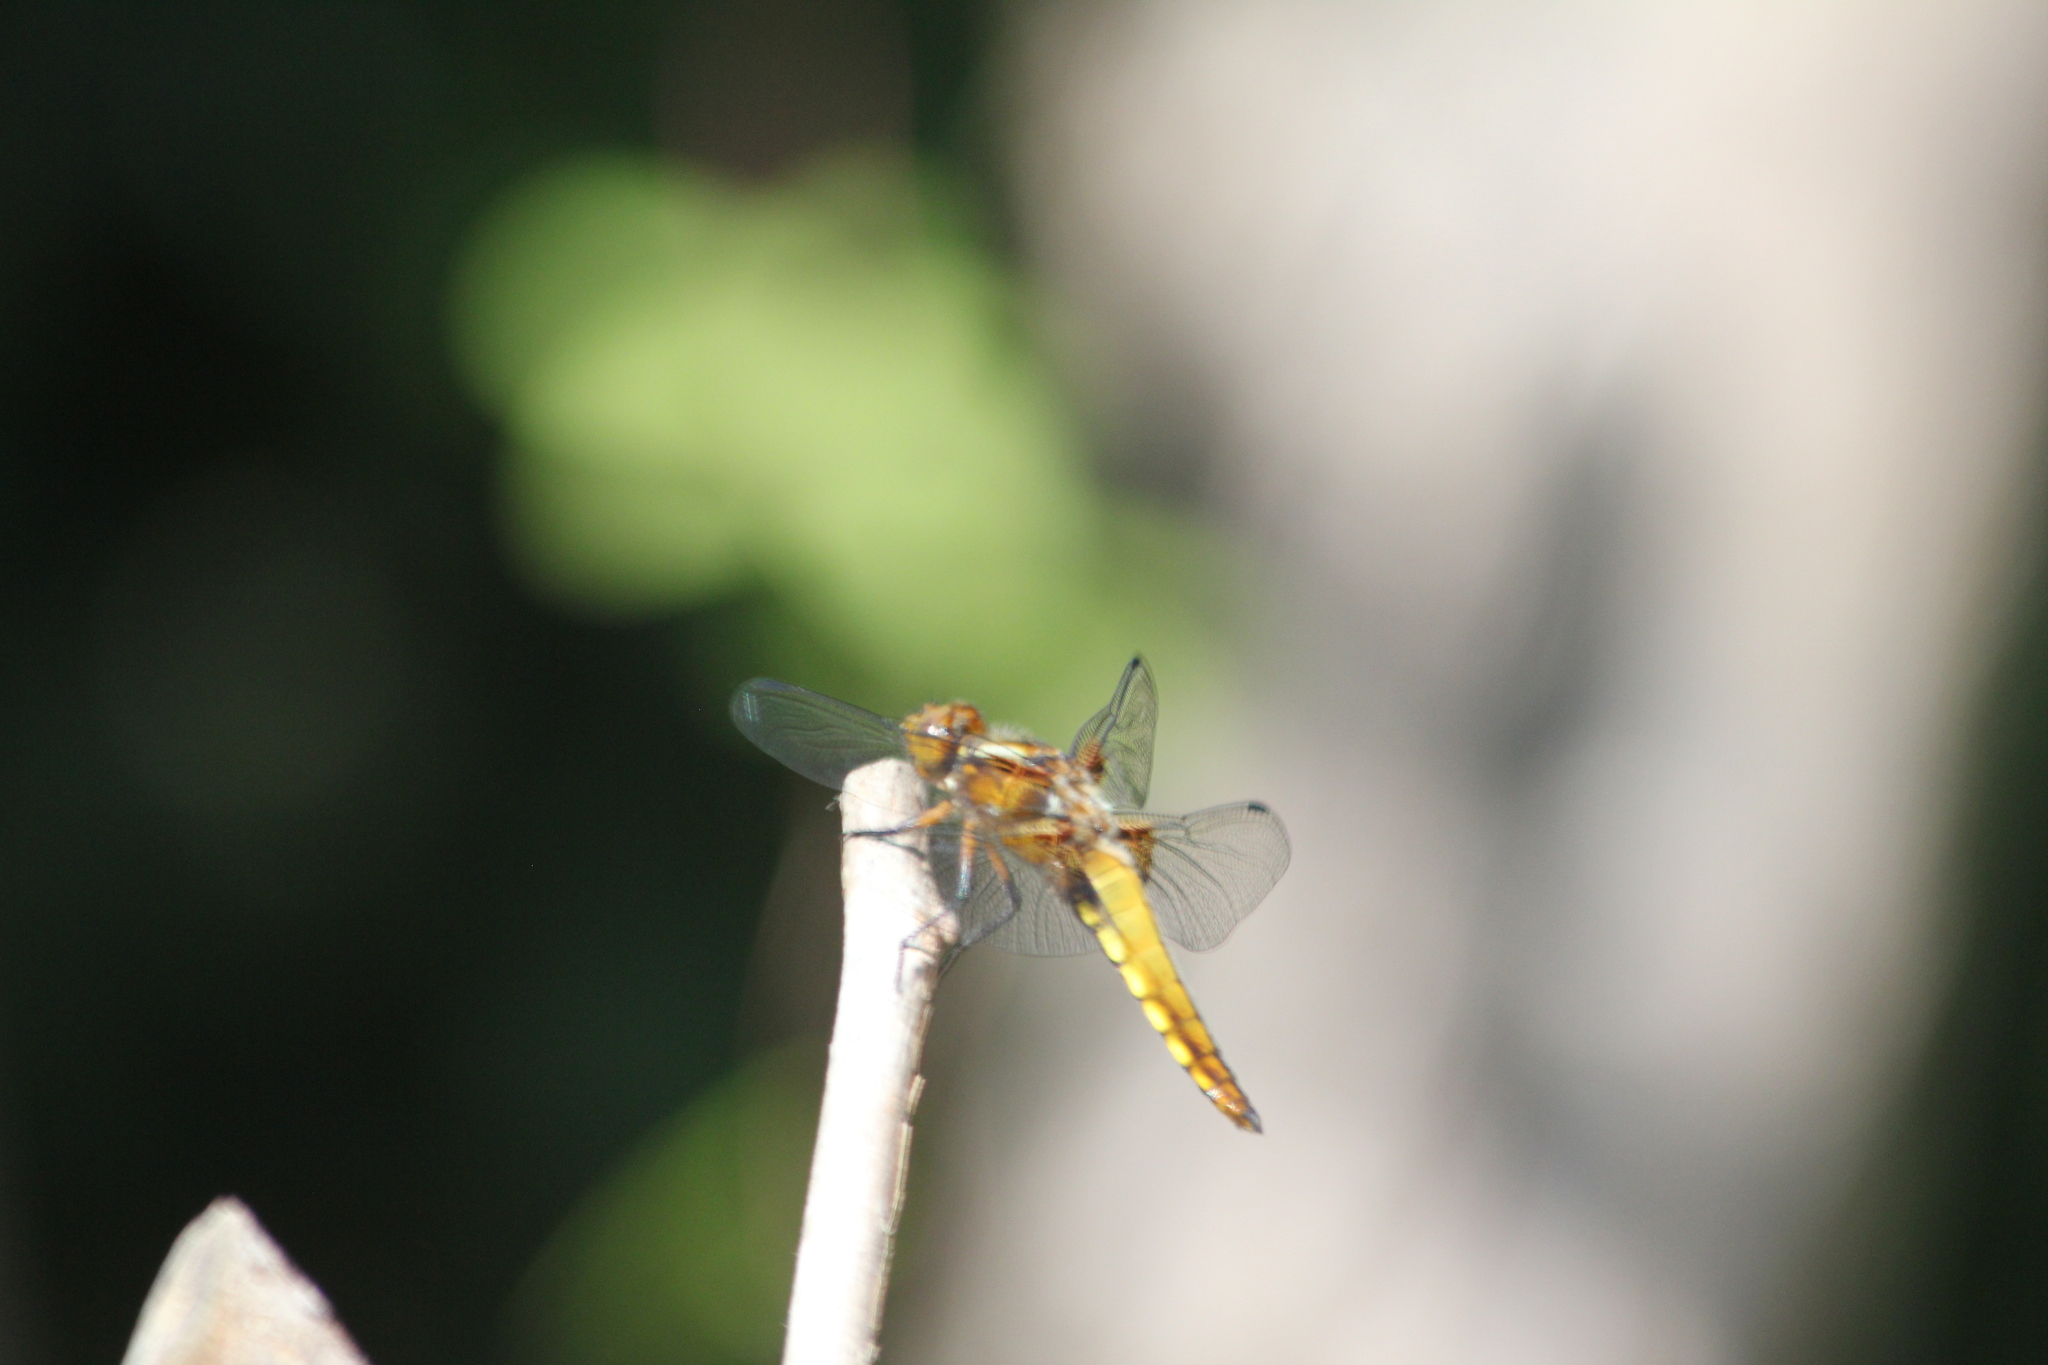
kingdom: Animalia
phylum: Arthropoda
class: Insecta
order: Odonata
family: Libellulidae
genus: Libellula
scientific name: Libellula depressa
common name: Broad-bodied chaser
